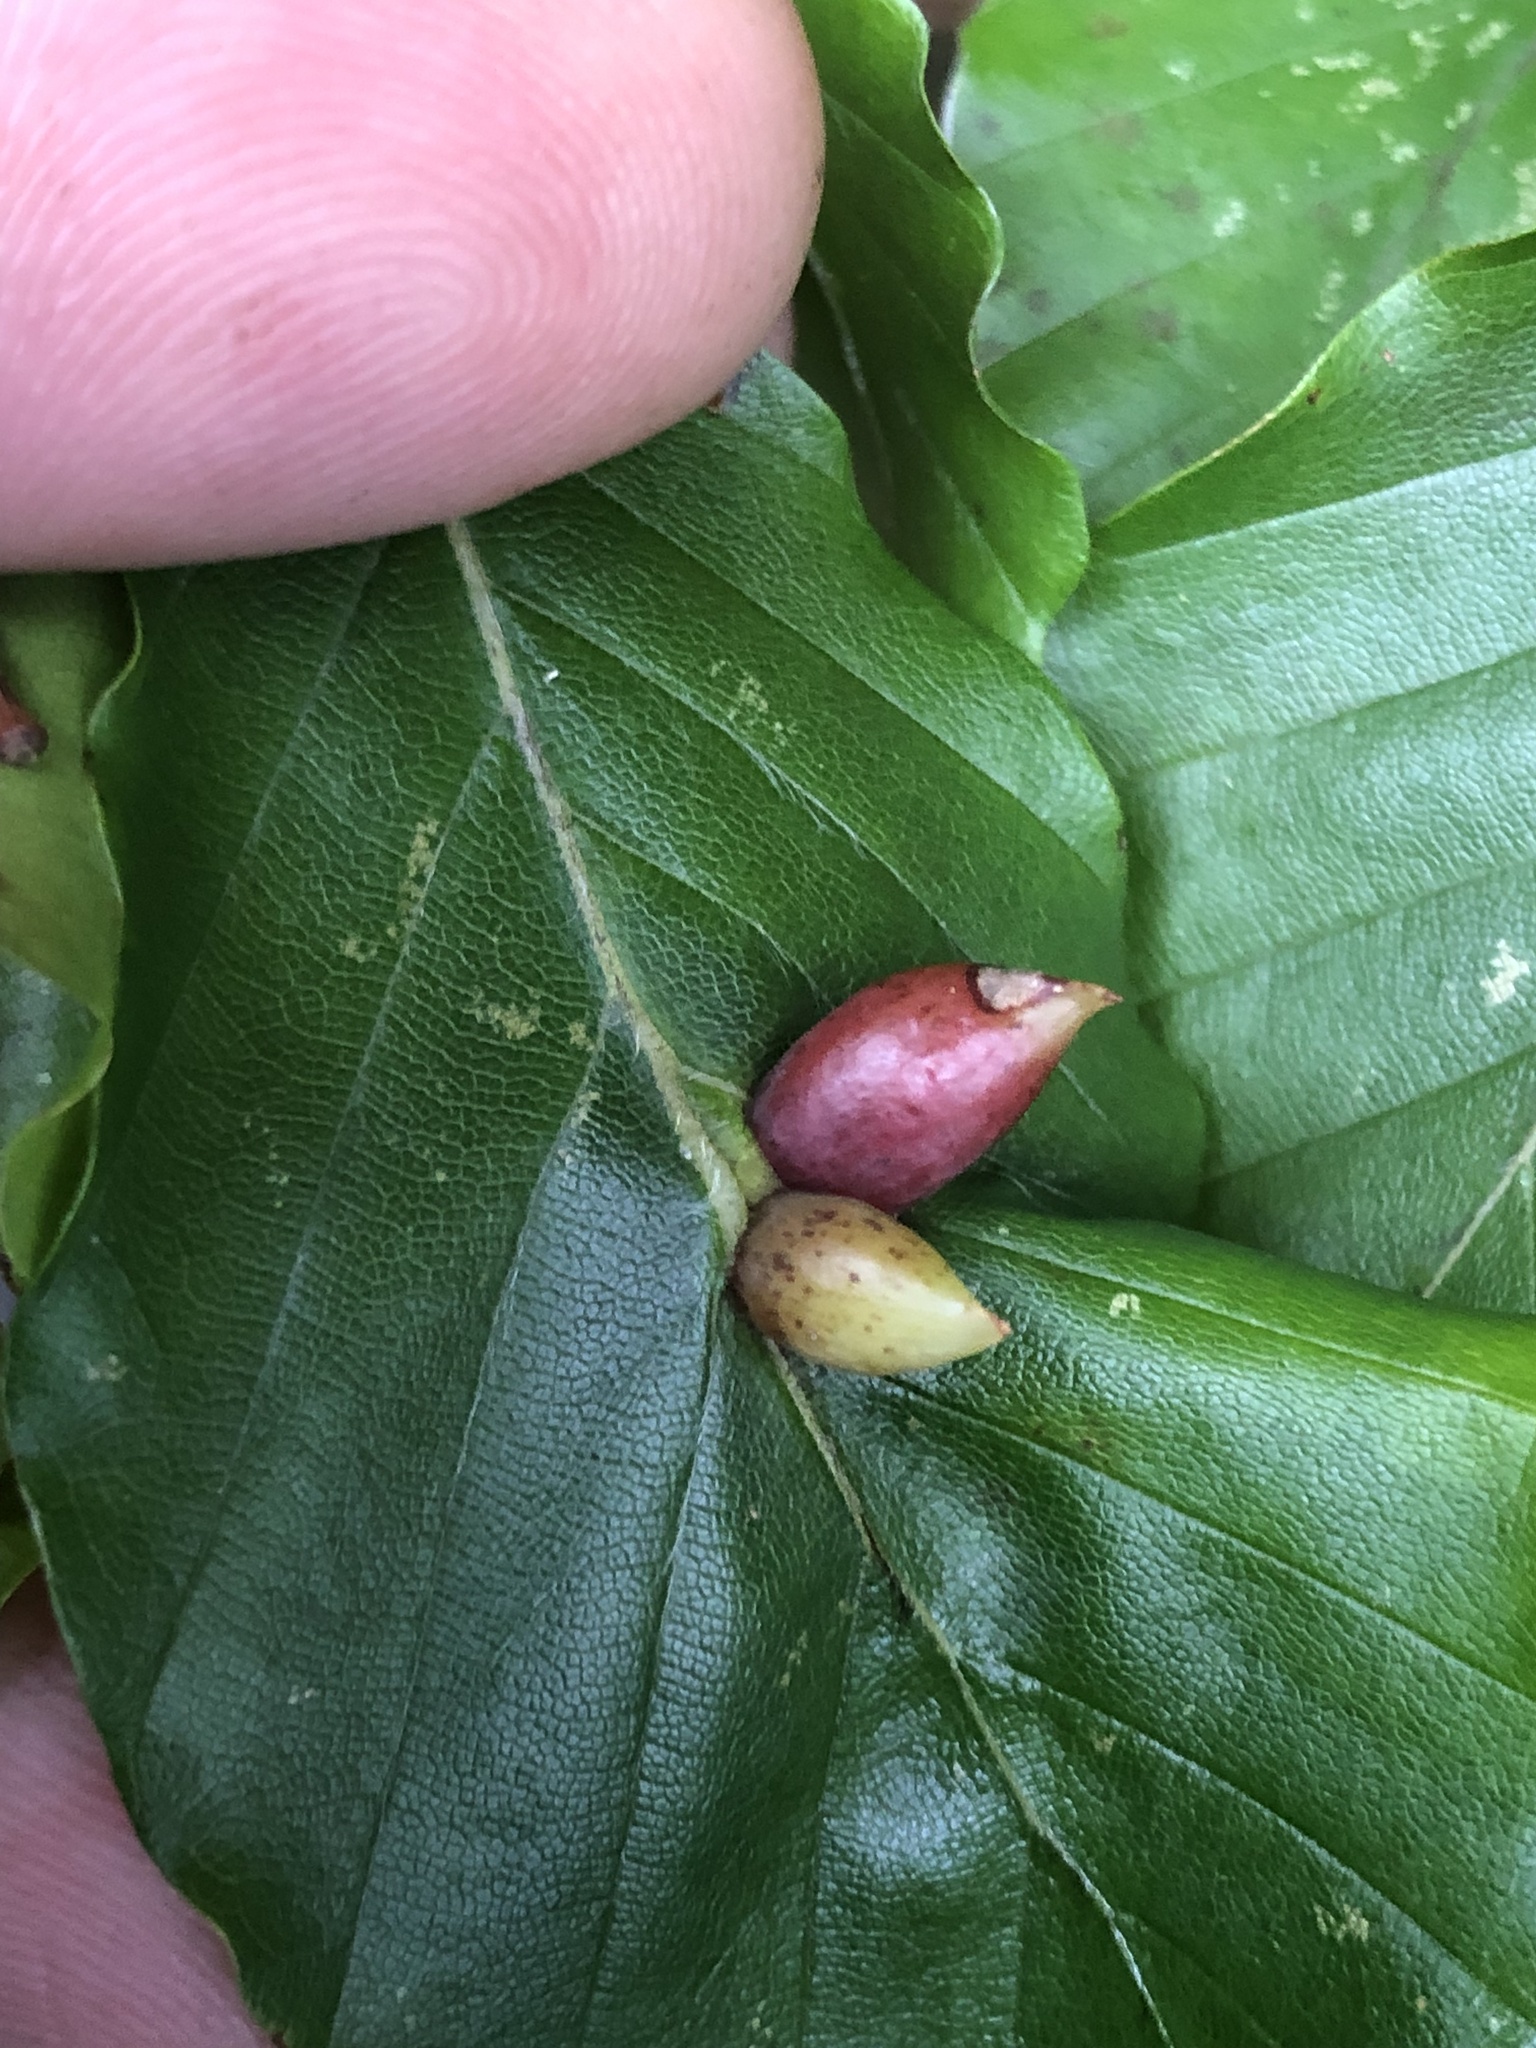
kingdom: Animalia
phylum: Arthropoda
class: Insecta
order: Diptera
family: Cecidomyiidae
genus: Mikiola
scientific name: Mikiola fagi
